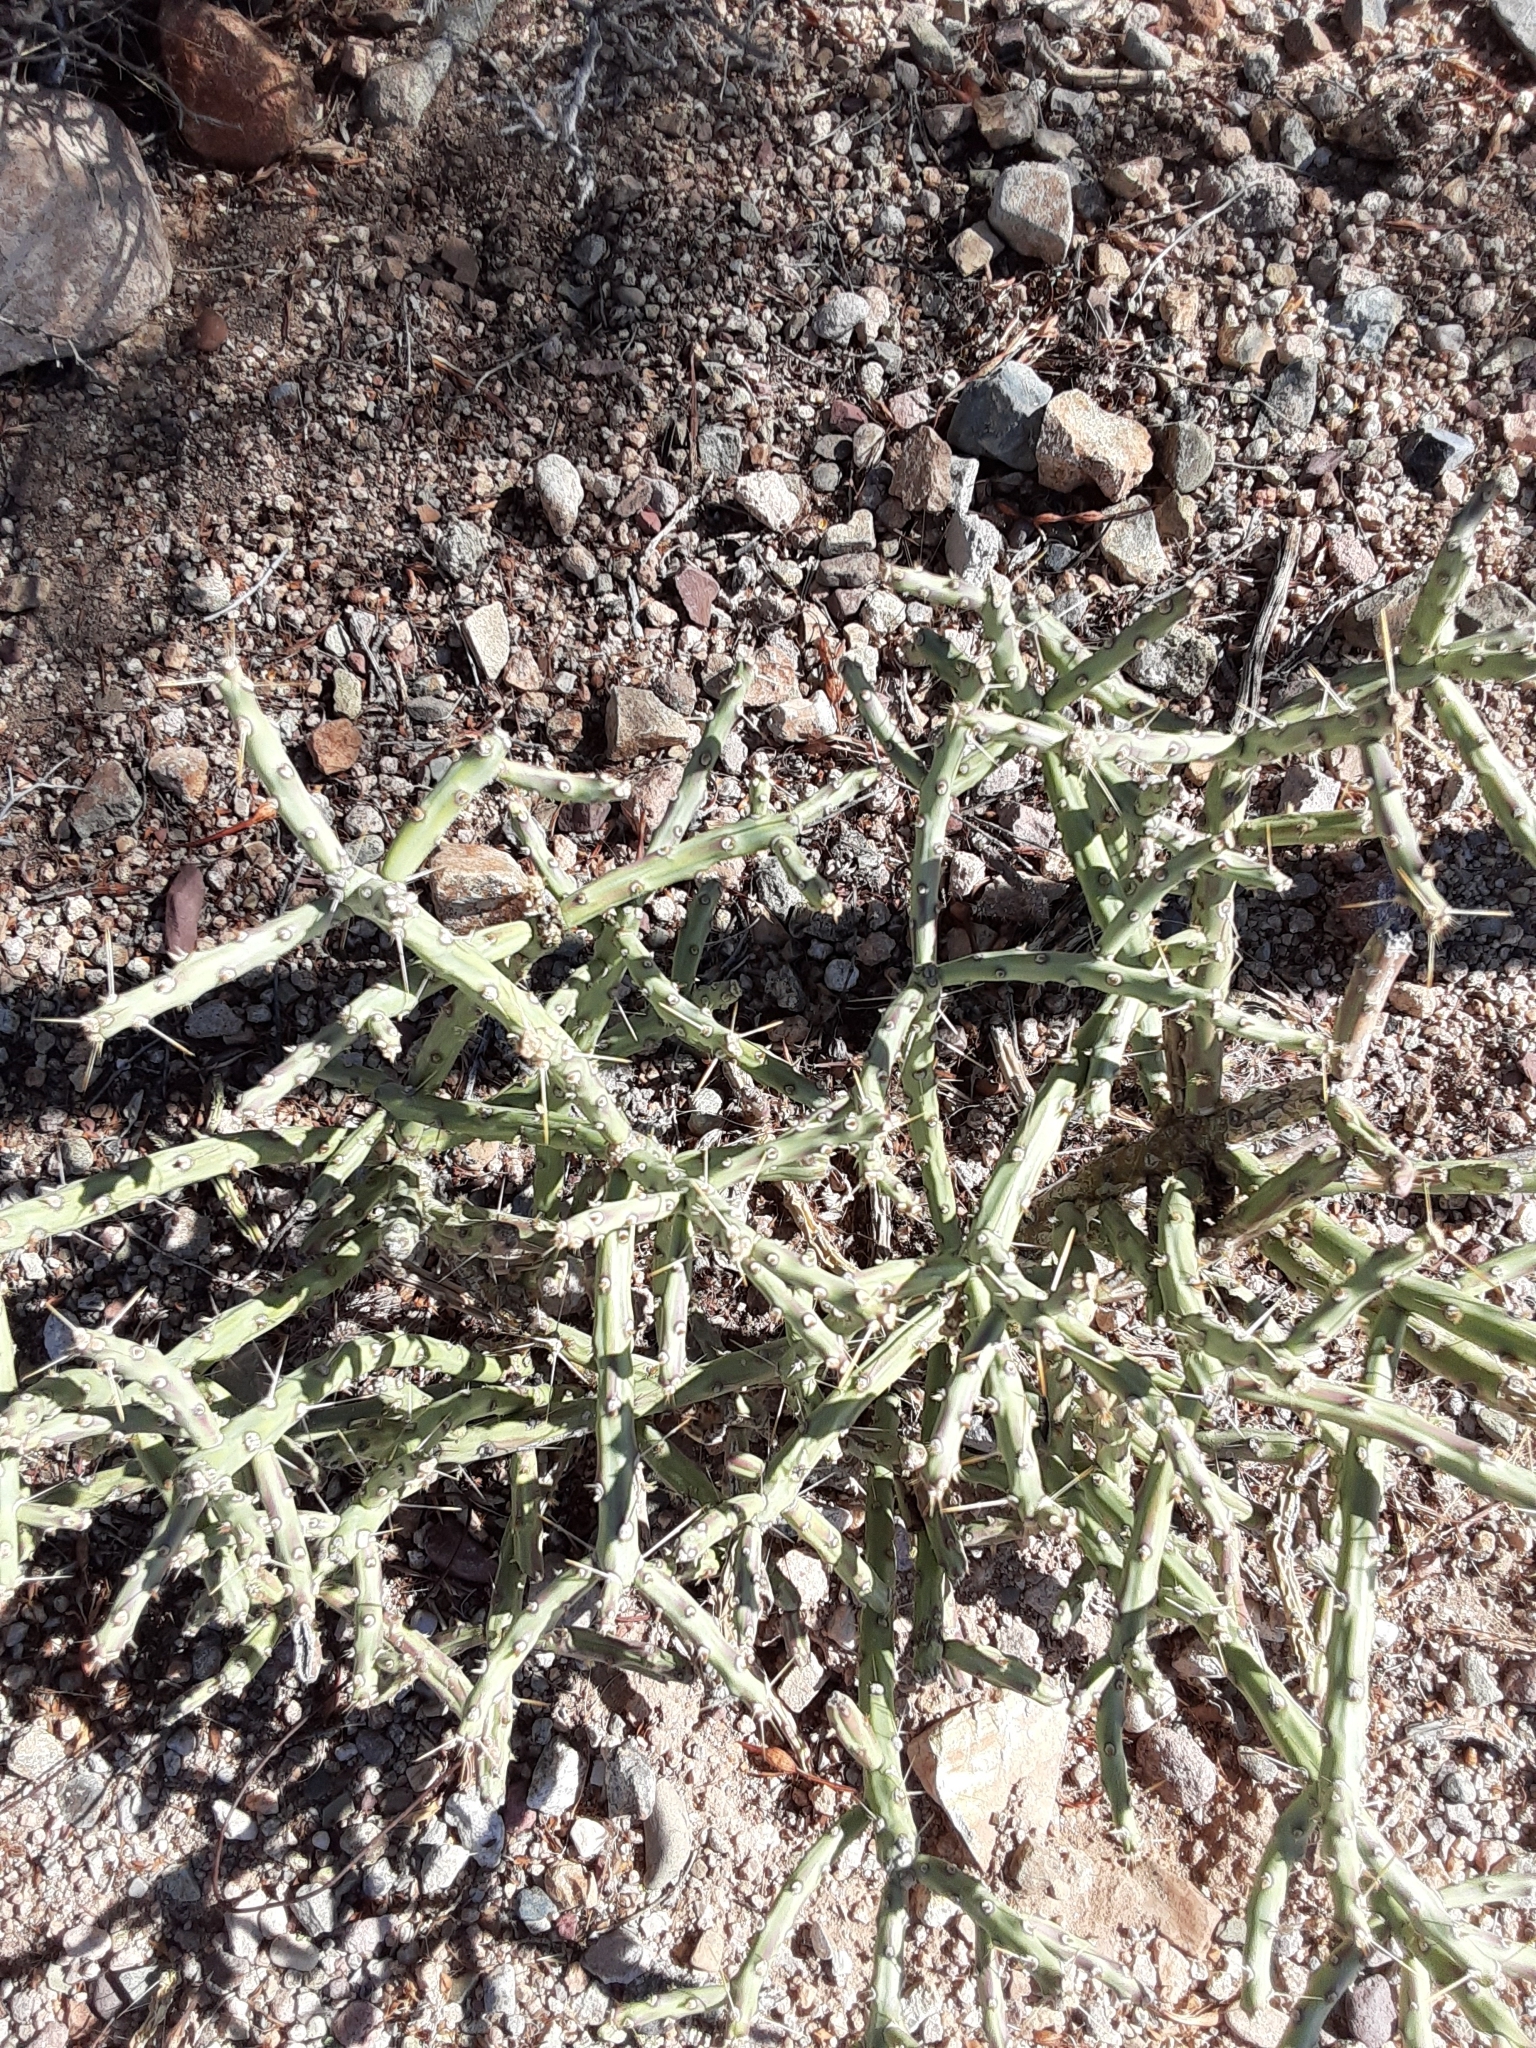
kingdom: Plantae
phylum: Tracheophyta
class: Magnoliopsida
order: Caryophyllales
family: Cactaceae
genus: Cylindropuntia
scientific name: Cylindropuntia arbuscula
